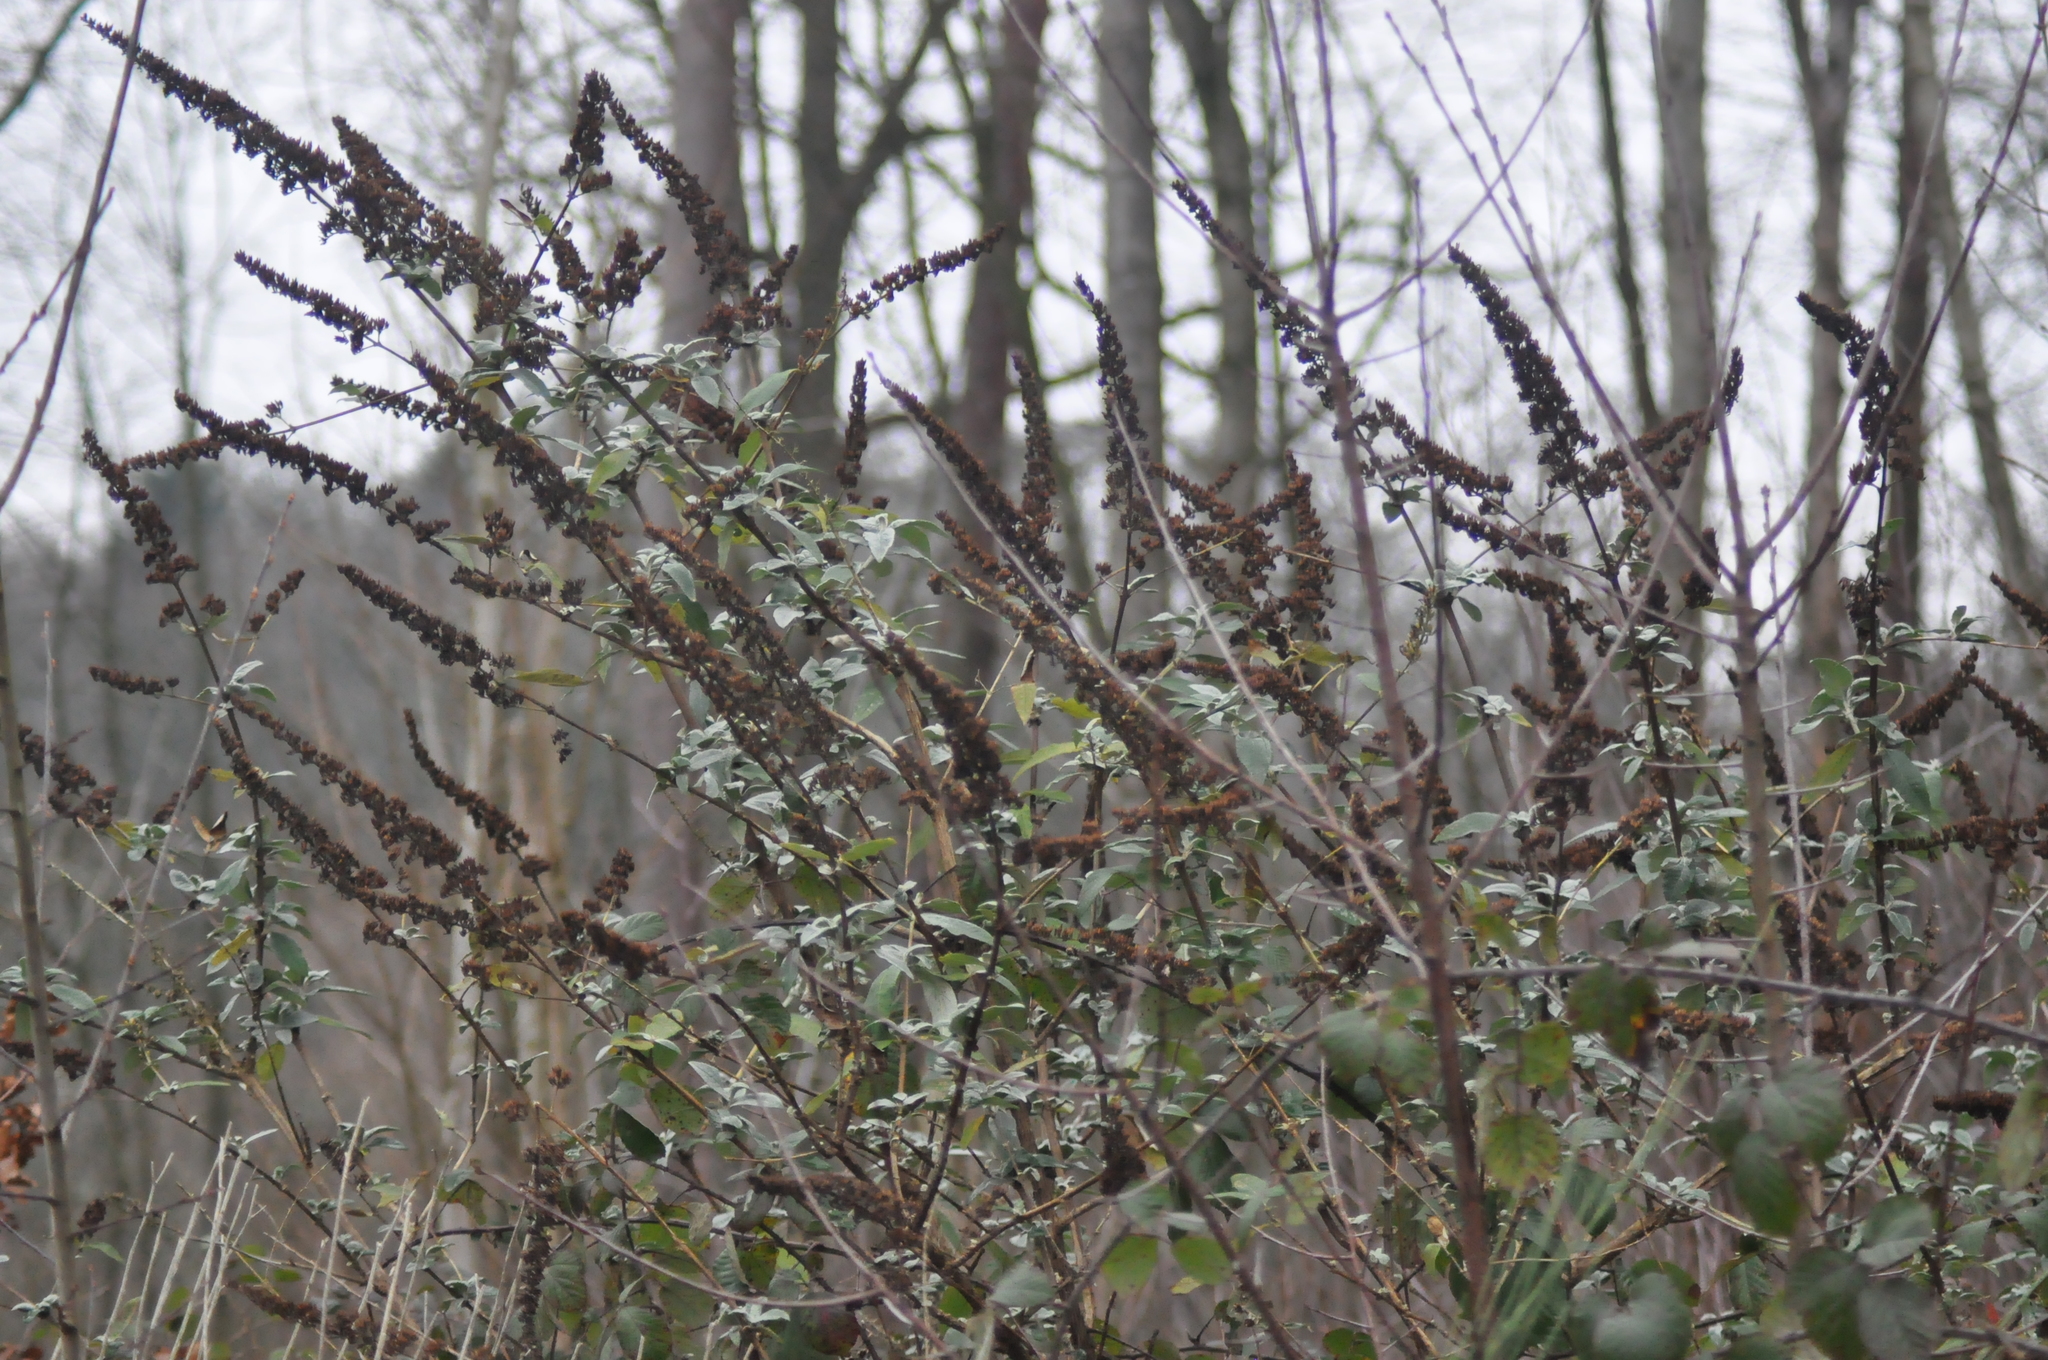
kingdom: Plantae
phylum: Tracheophyta
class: Magnoliopsida
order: Lamiales
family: Scrophulariaceae
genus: Buddleja
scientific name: Buddleja davidii
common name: Butterfly-bush
